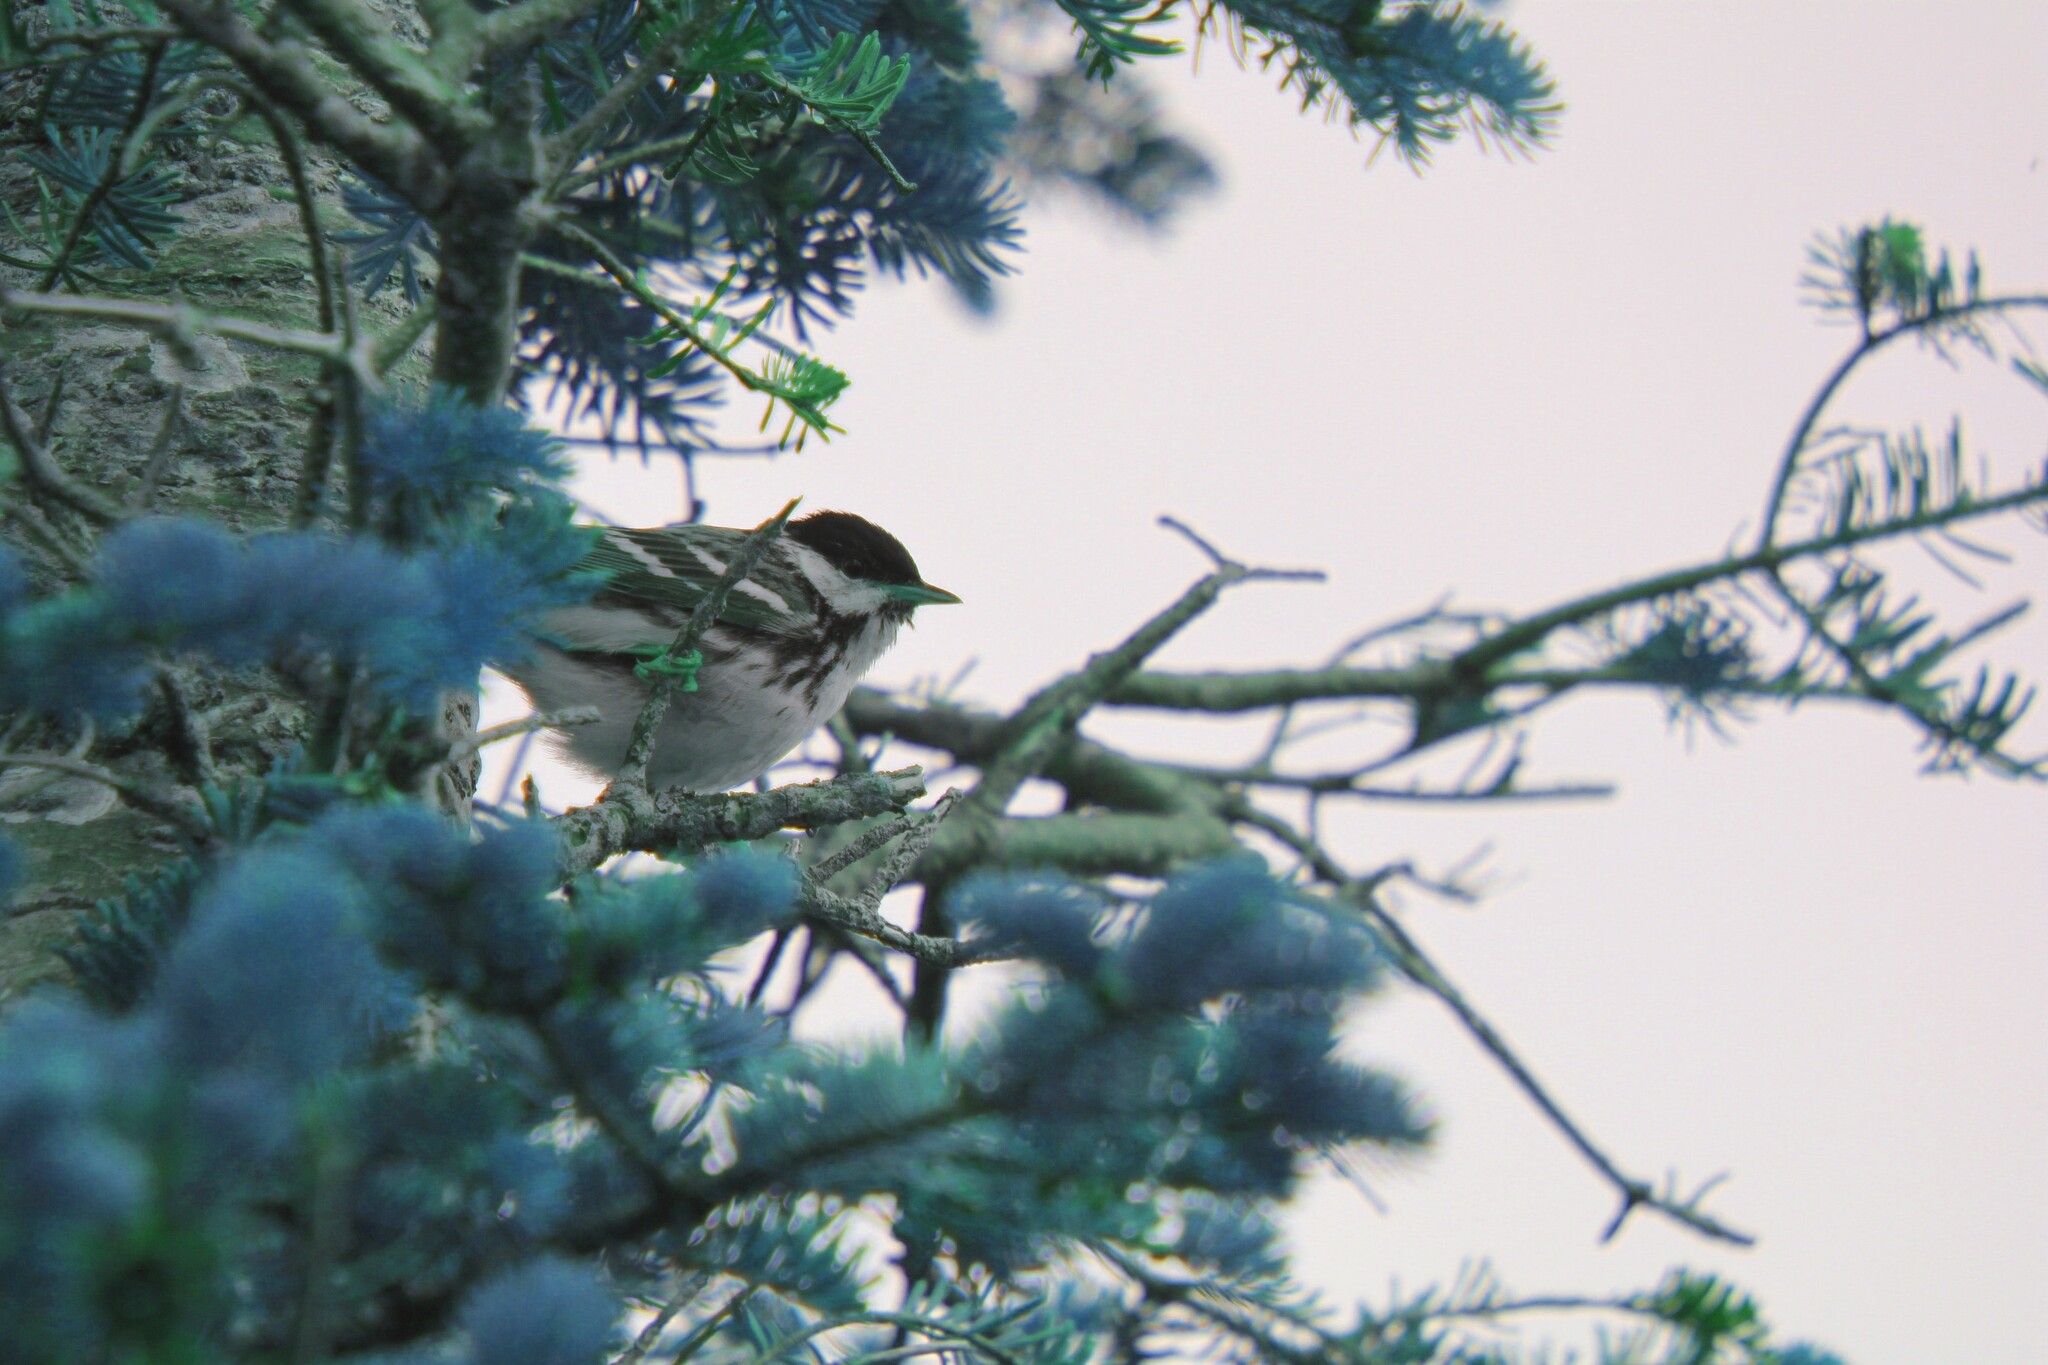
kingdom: Animalia
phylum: Chordata
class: Aves
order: Passeriformes
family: Parulidae
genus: Setophaga
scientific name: Setophaga striata
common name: Blackpoll warbler
